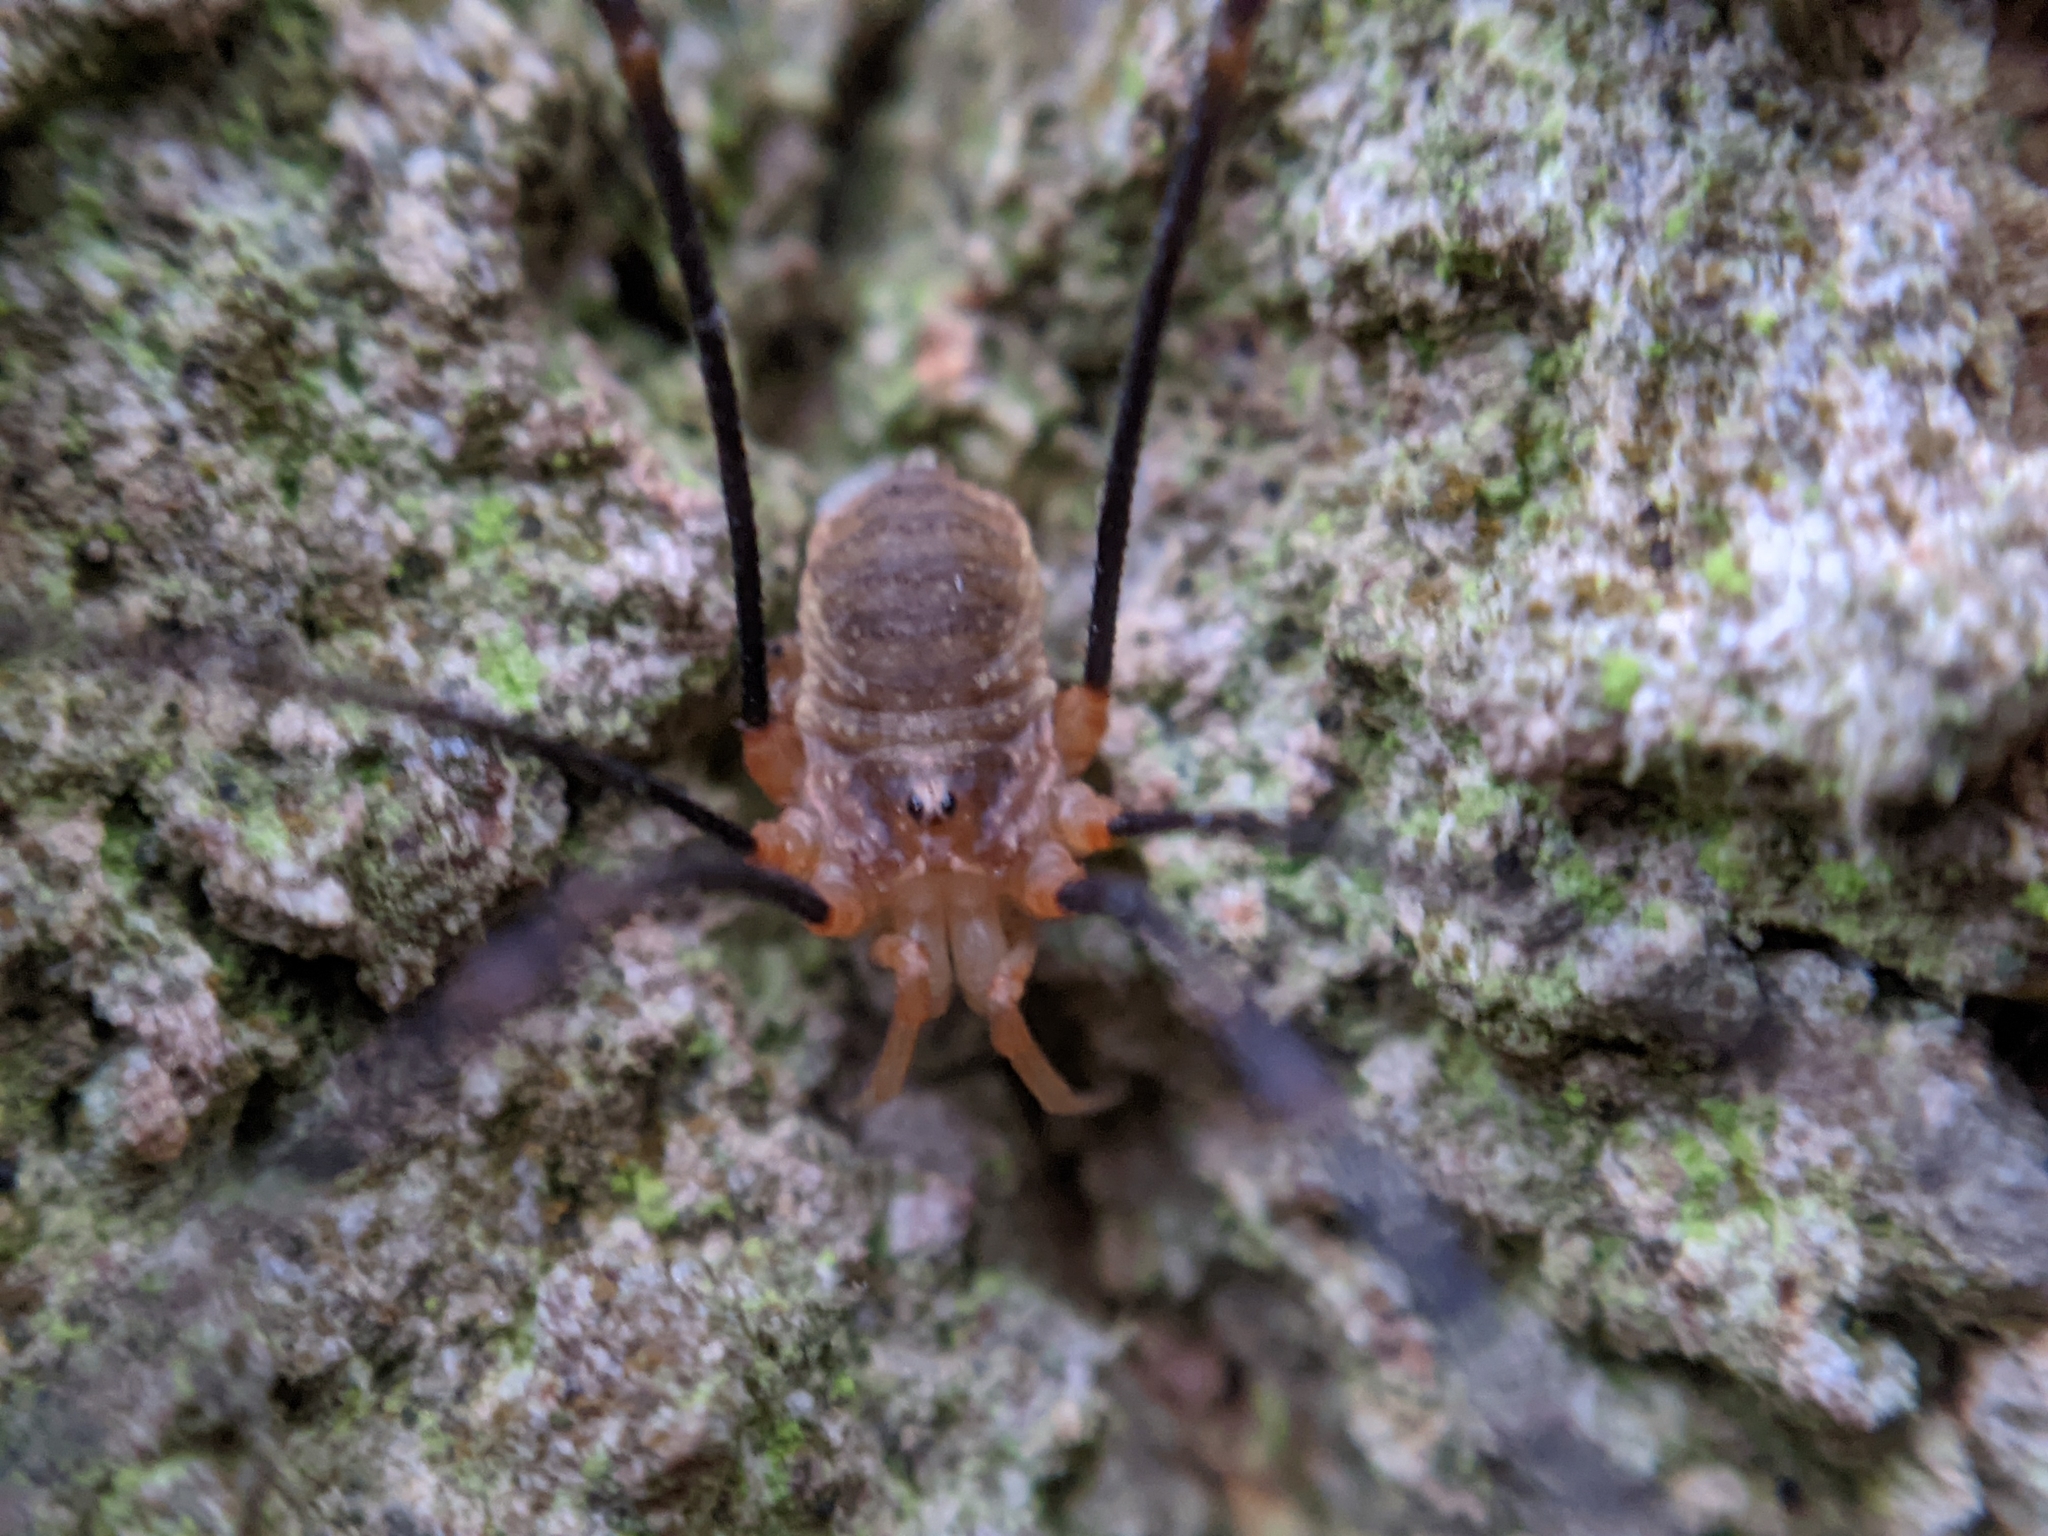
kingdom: Animalia
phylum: Arthropoda
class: Arachnida
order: Opiliones
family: Phalangiidae
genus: Opilio
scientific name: Opilio canestrinii
